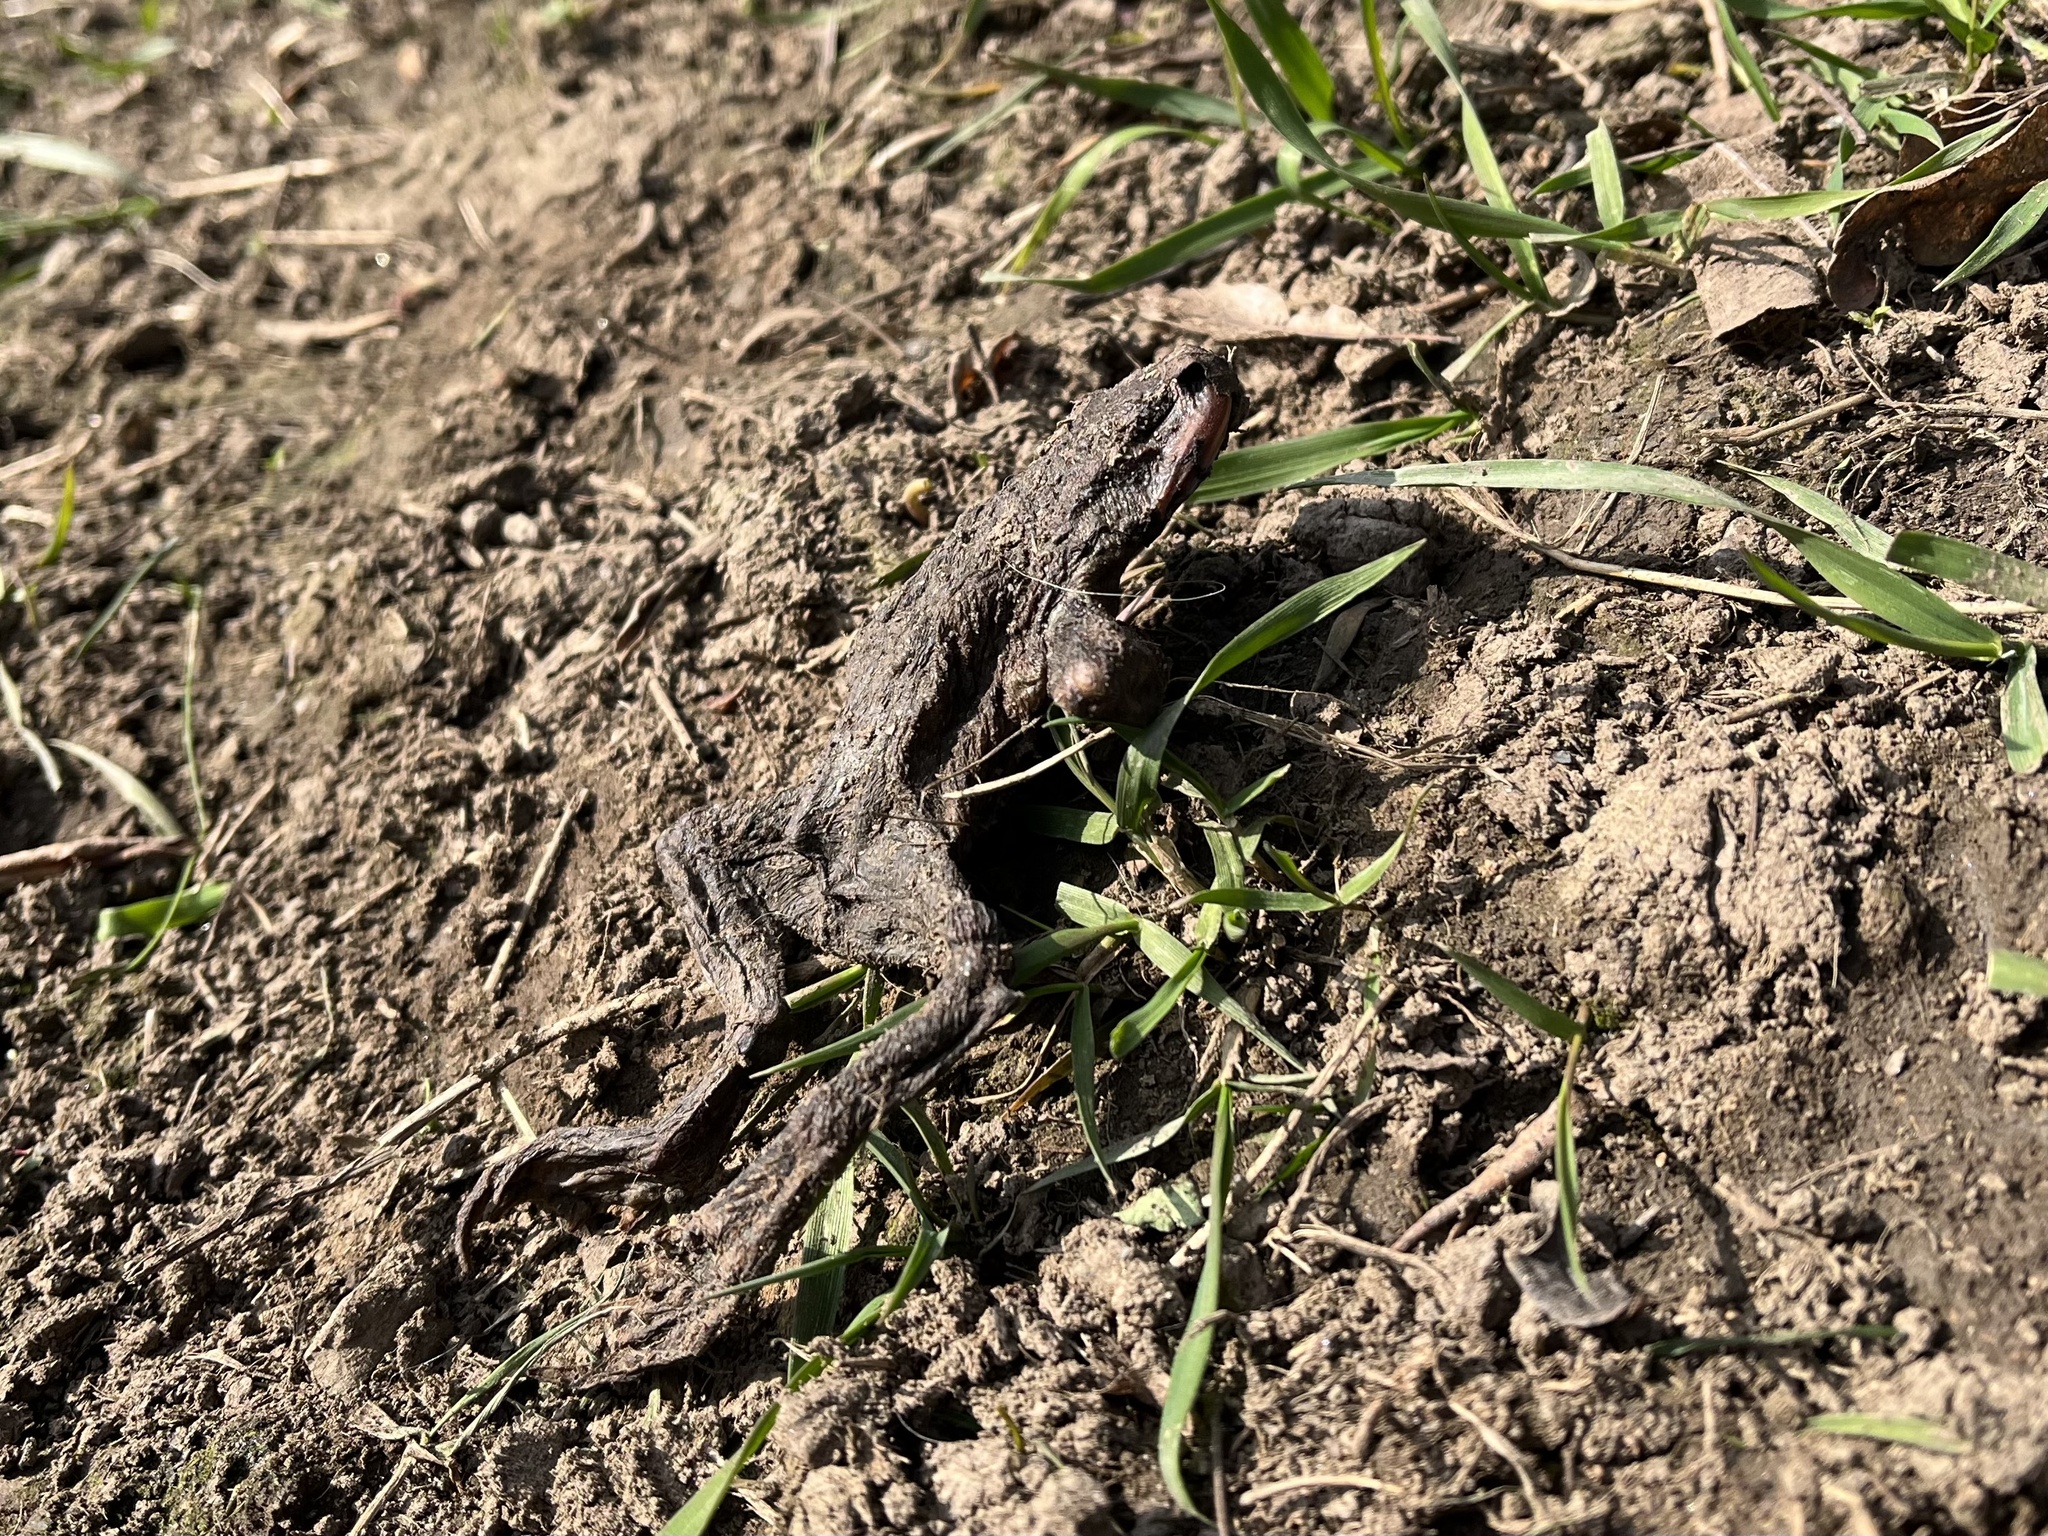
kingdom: Animalia
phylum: Chordata
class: Amphibia
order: Anura
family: Bufonidae
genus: Bufo
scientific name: Bufo bufo
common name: Common toad
